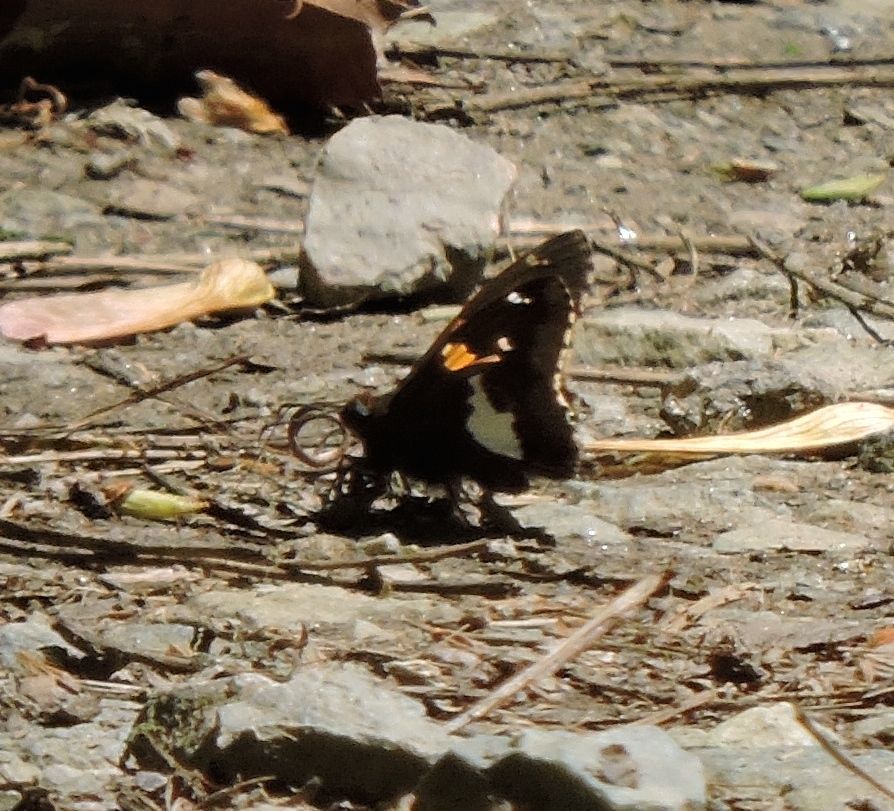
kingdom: Animalia
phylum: Arthropoda
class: Insecta
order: Lepidoptera
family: Hesperiidae
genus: Epargyreus
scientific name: Epargyreus clarus
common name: Silver-spotted skipper
